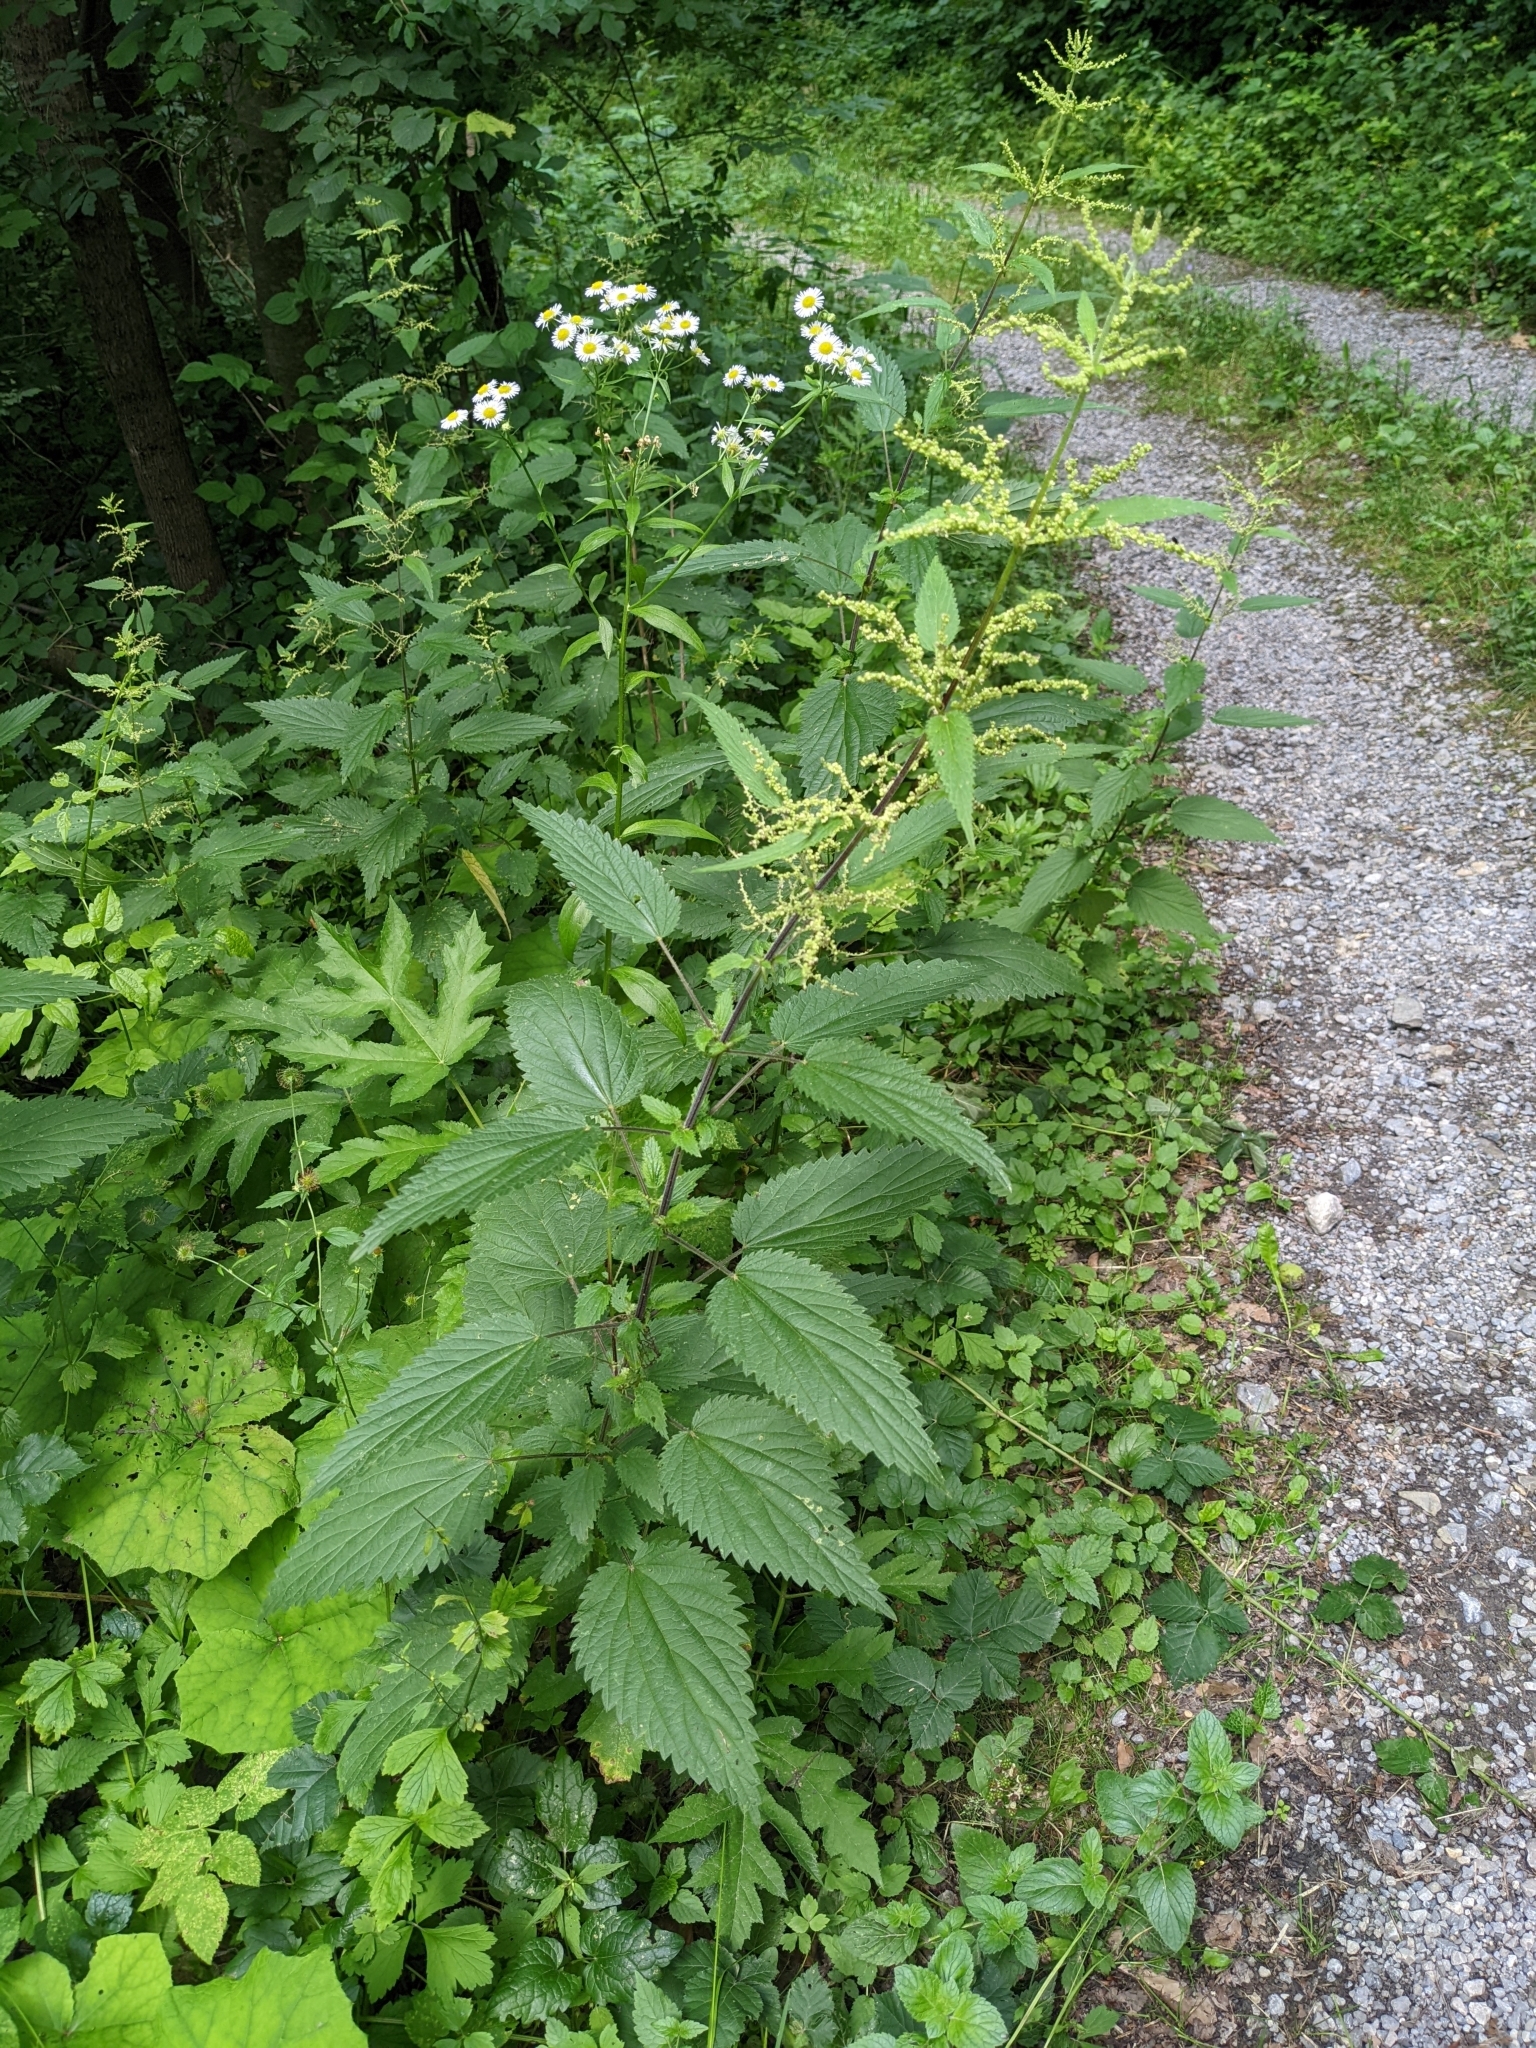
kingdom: Plantae
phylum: Tracheophyta
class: Magnoliopsida
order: Rosales
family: Urticaceae
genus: Urtica
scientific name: Urtica dioica
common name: Common nettle
